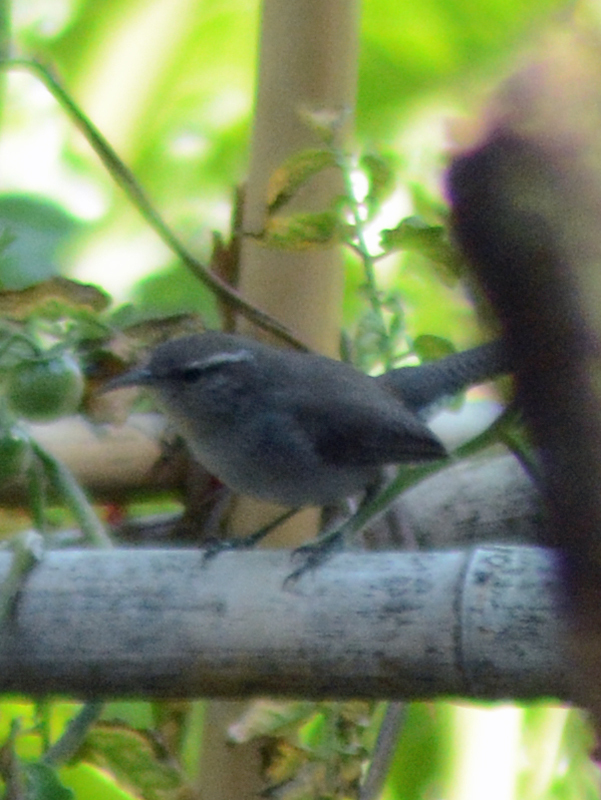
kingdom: Animalia
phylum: Chordata
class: Aves
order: Passeriformes
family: Troglodytidae
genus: Thryomanes
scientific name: Thryomanes bewickii
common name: Bewick's wren
